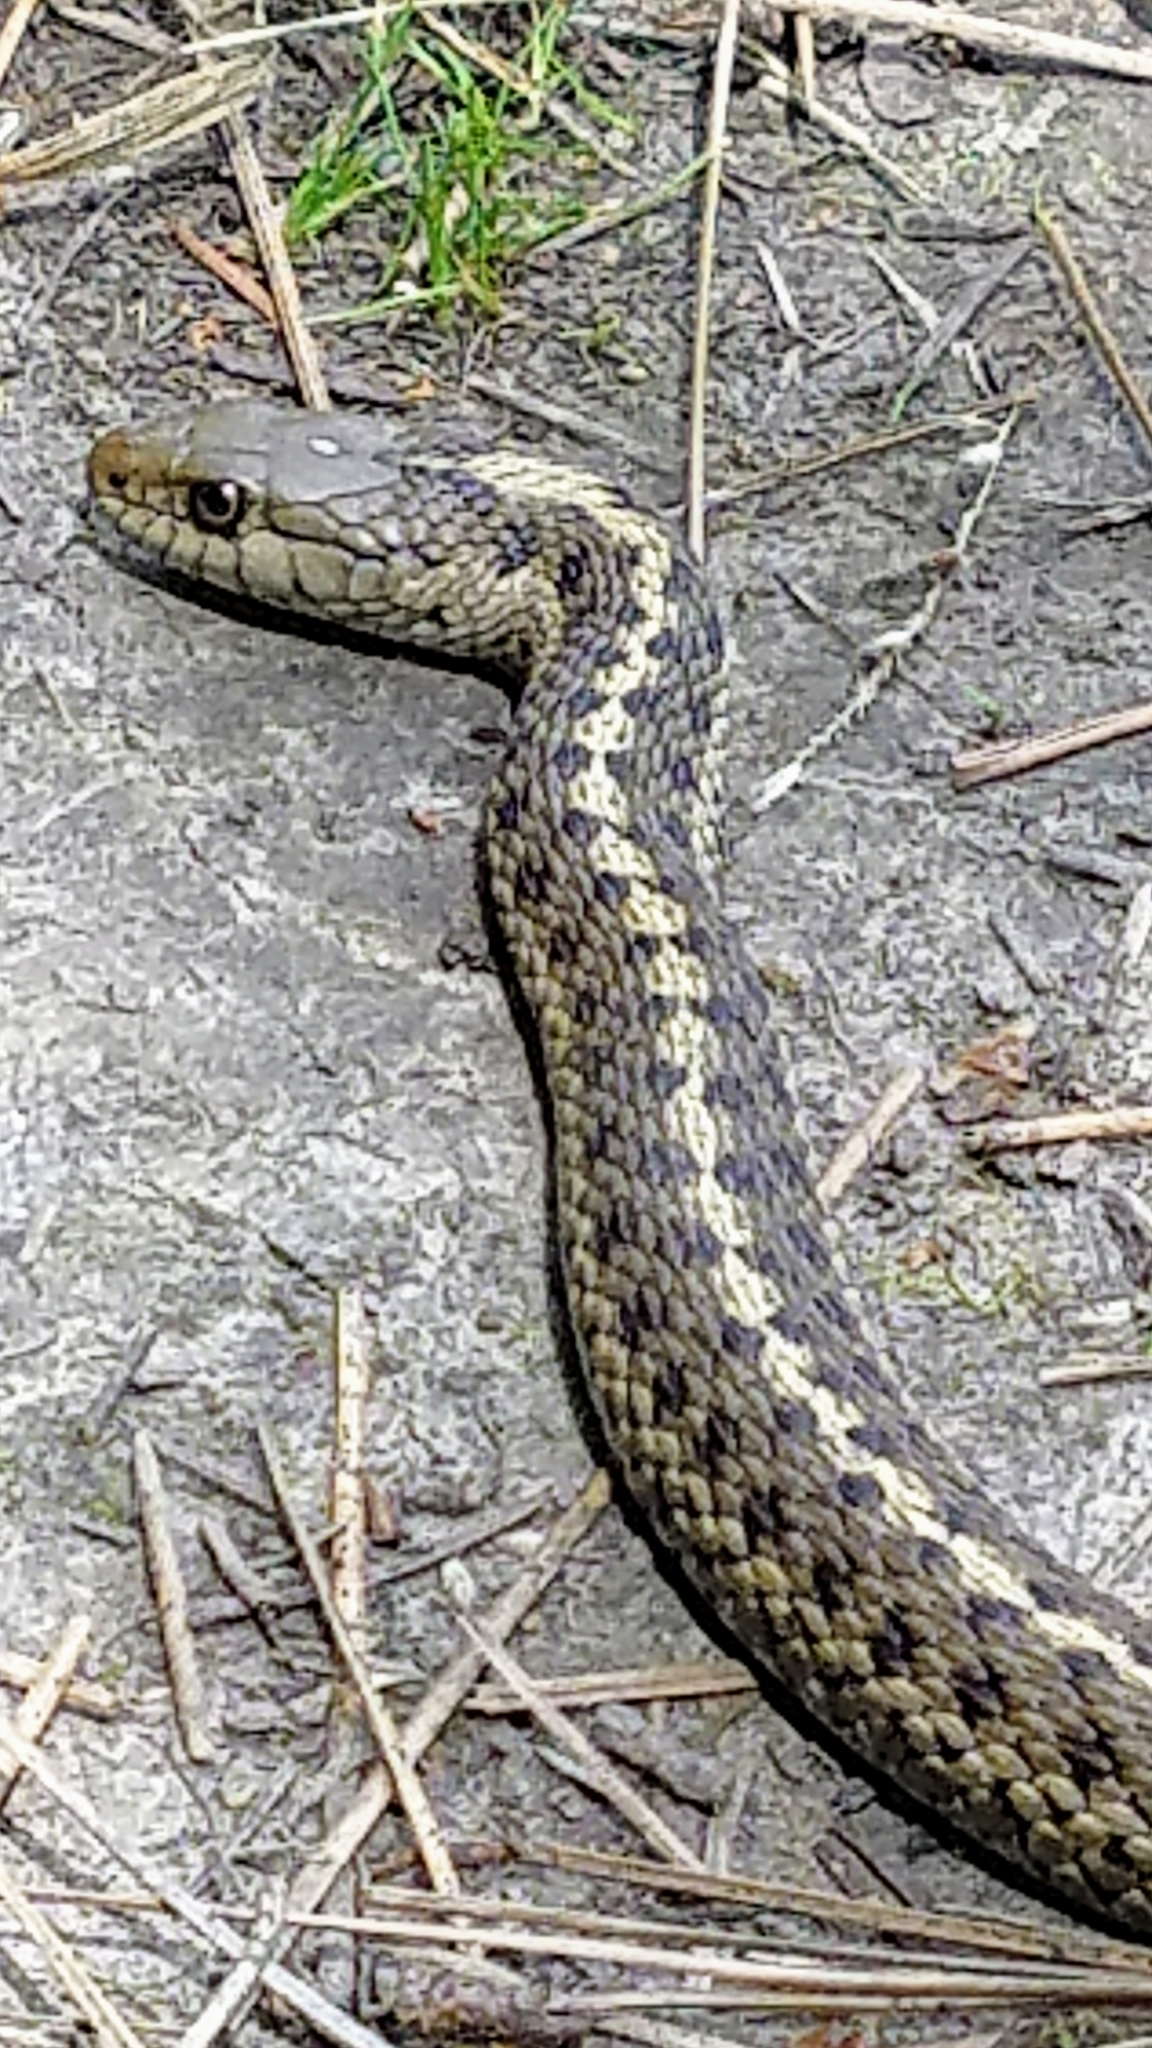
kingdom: Animalia
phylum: Chordata
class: Squamata
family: Colubridae
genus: Thamnophis
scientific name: Thamnophis elegans
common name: Western terrestrial garter snake
